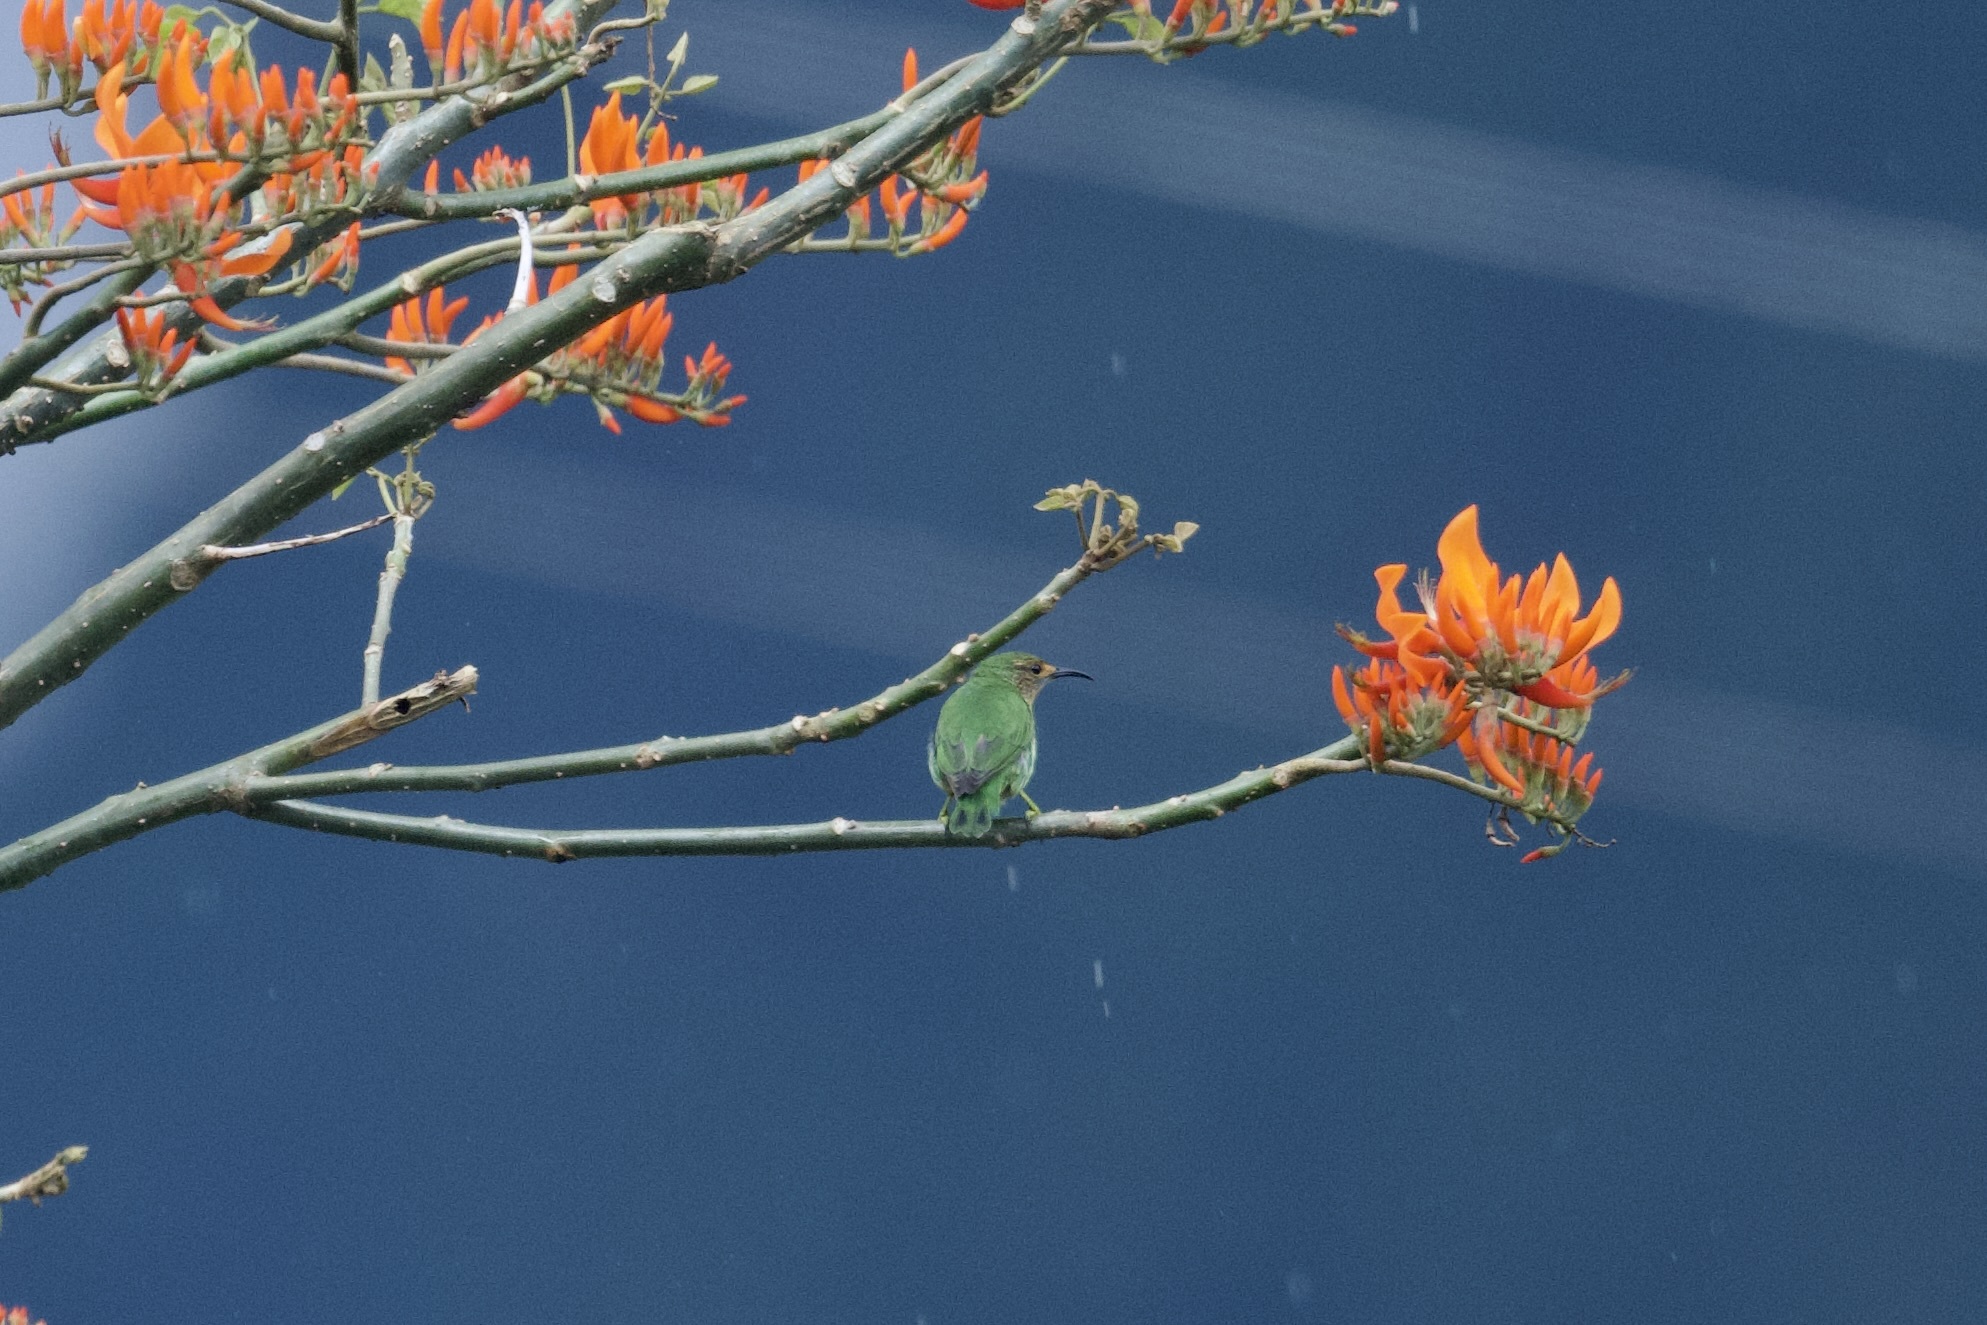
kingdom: Animalia
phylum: Chordata
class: Aves
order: Passeriformes
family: Thraupidae
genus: Cyanerpes
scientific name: Cyanerpes caeruleus
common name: Purple honeycreeper
